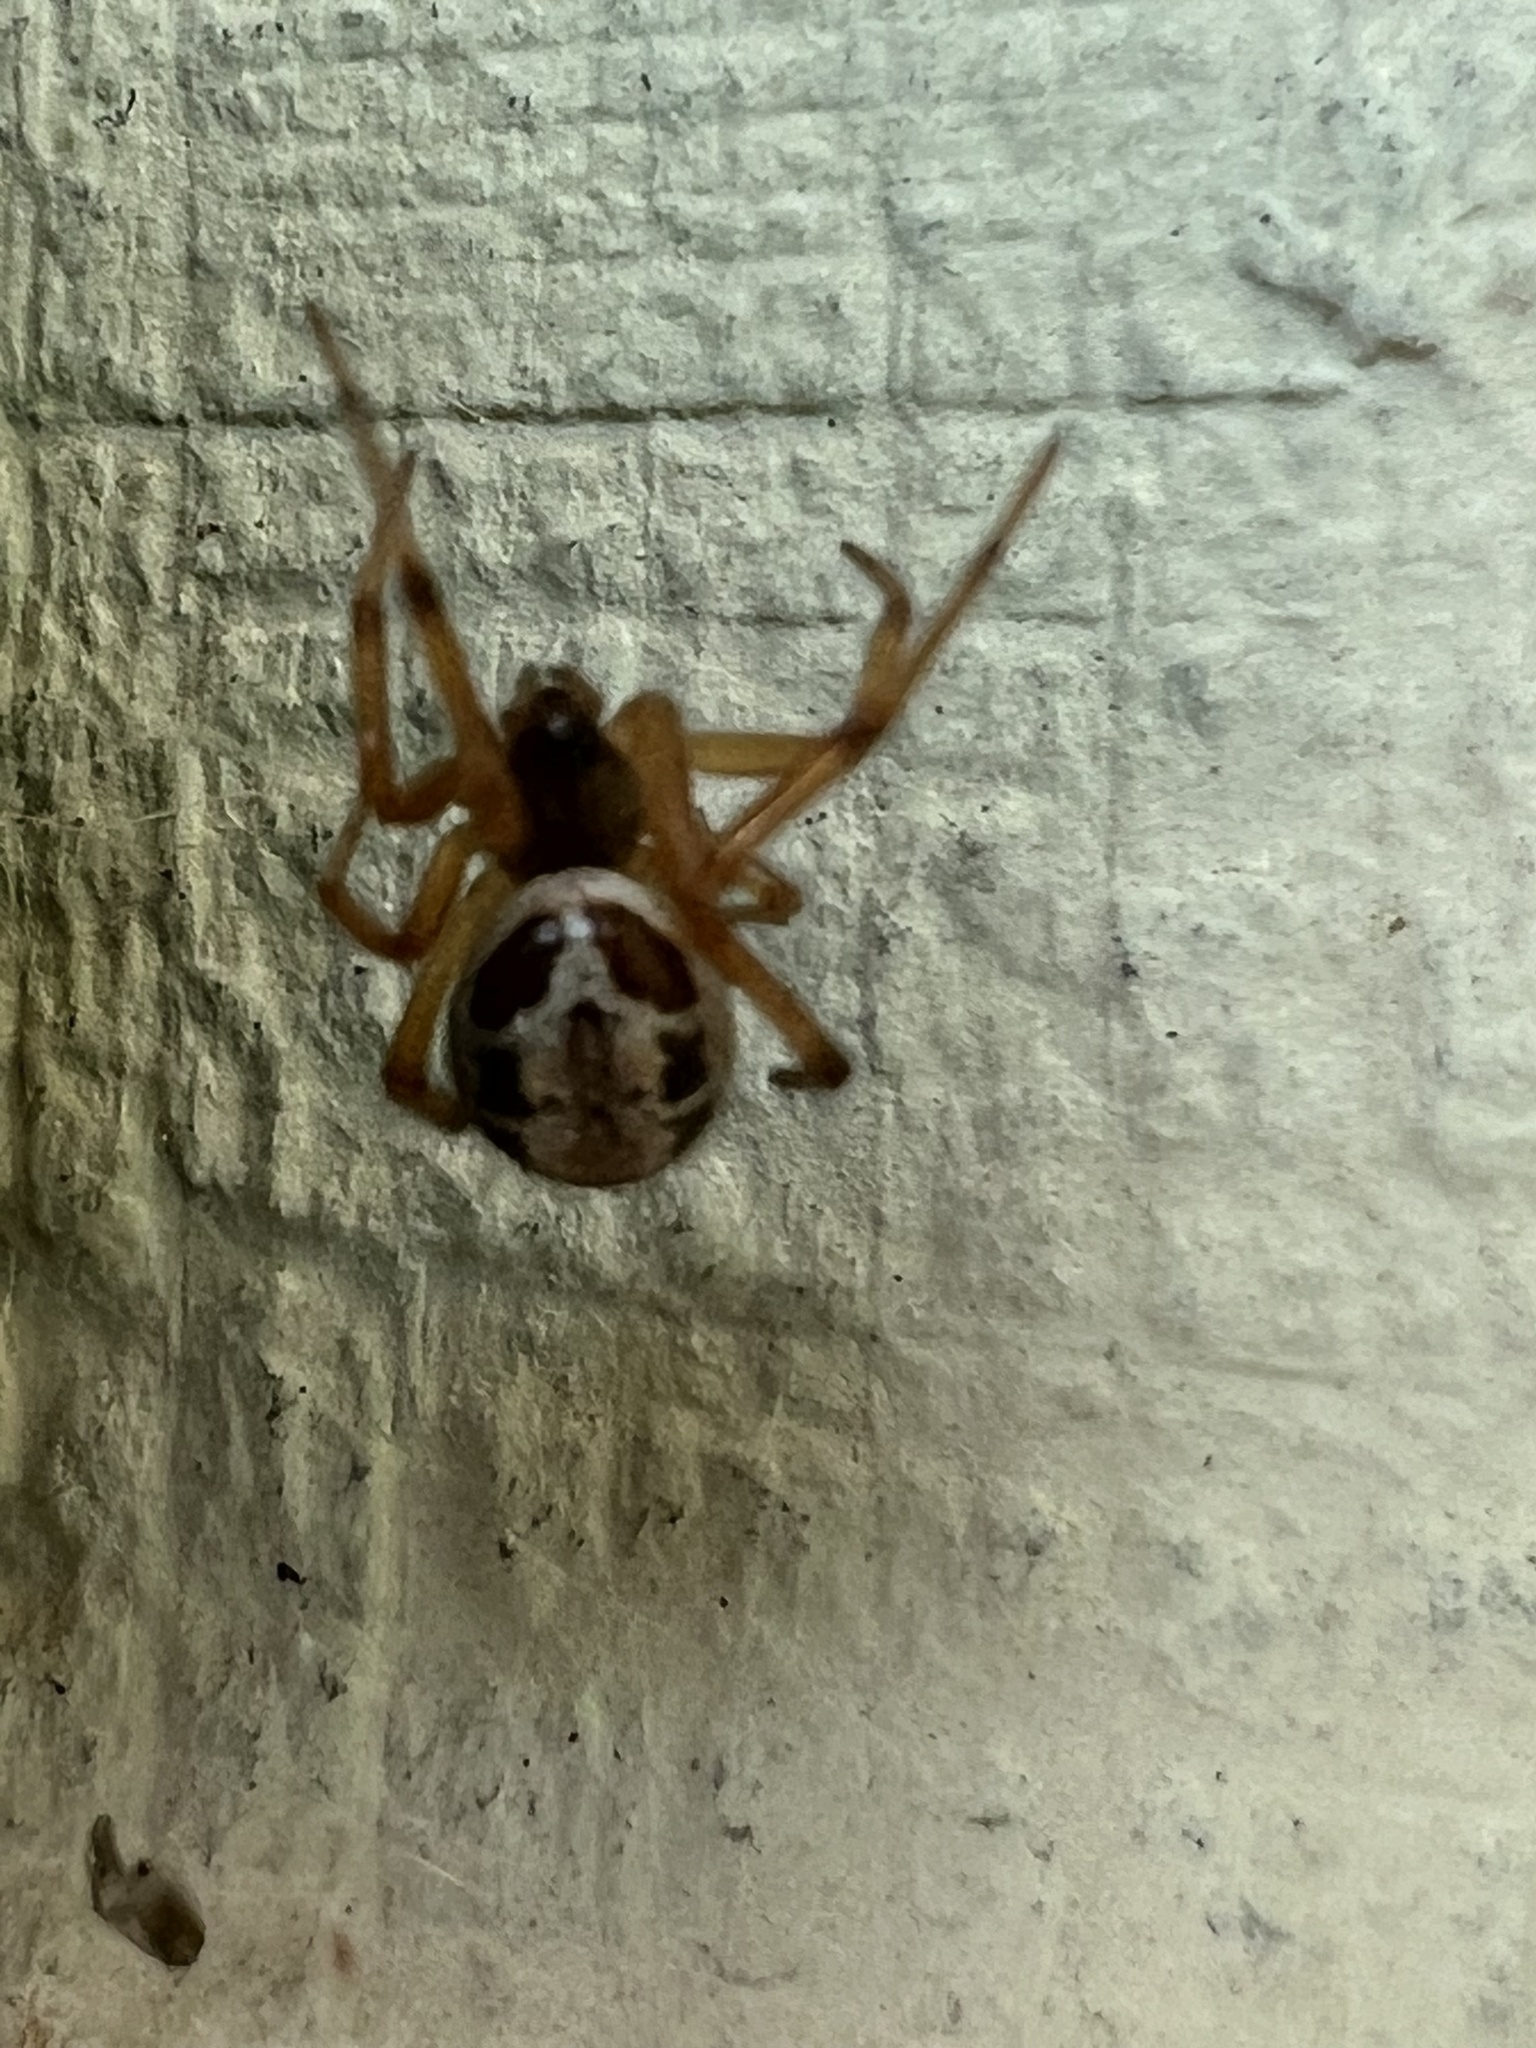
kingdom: Animalia
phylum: Arthropoda
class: Arachnida
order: Araneae
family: Theridiidae
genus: Steatoda
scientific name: Steatoda nobilis
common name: Cobweb weaver
